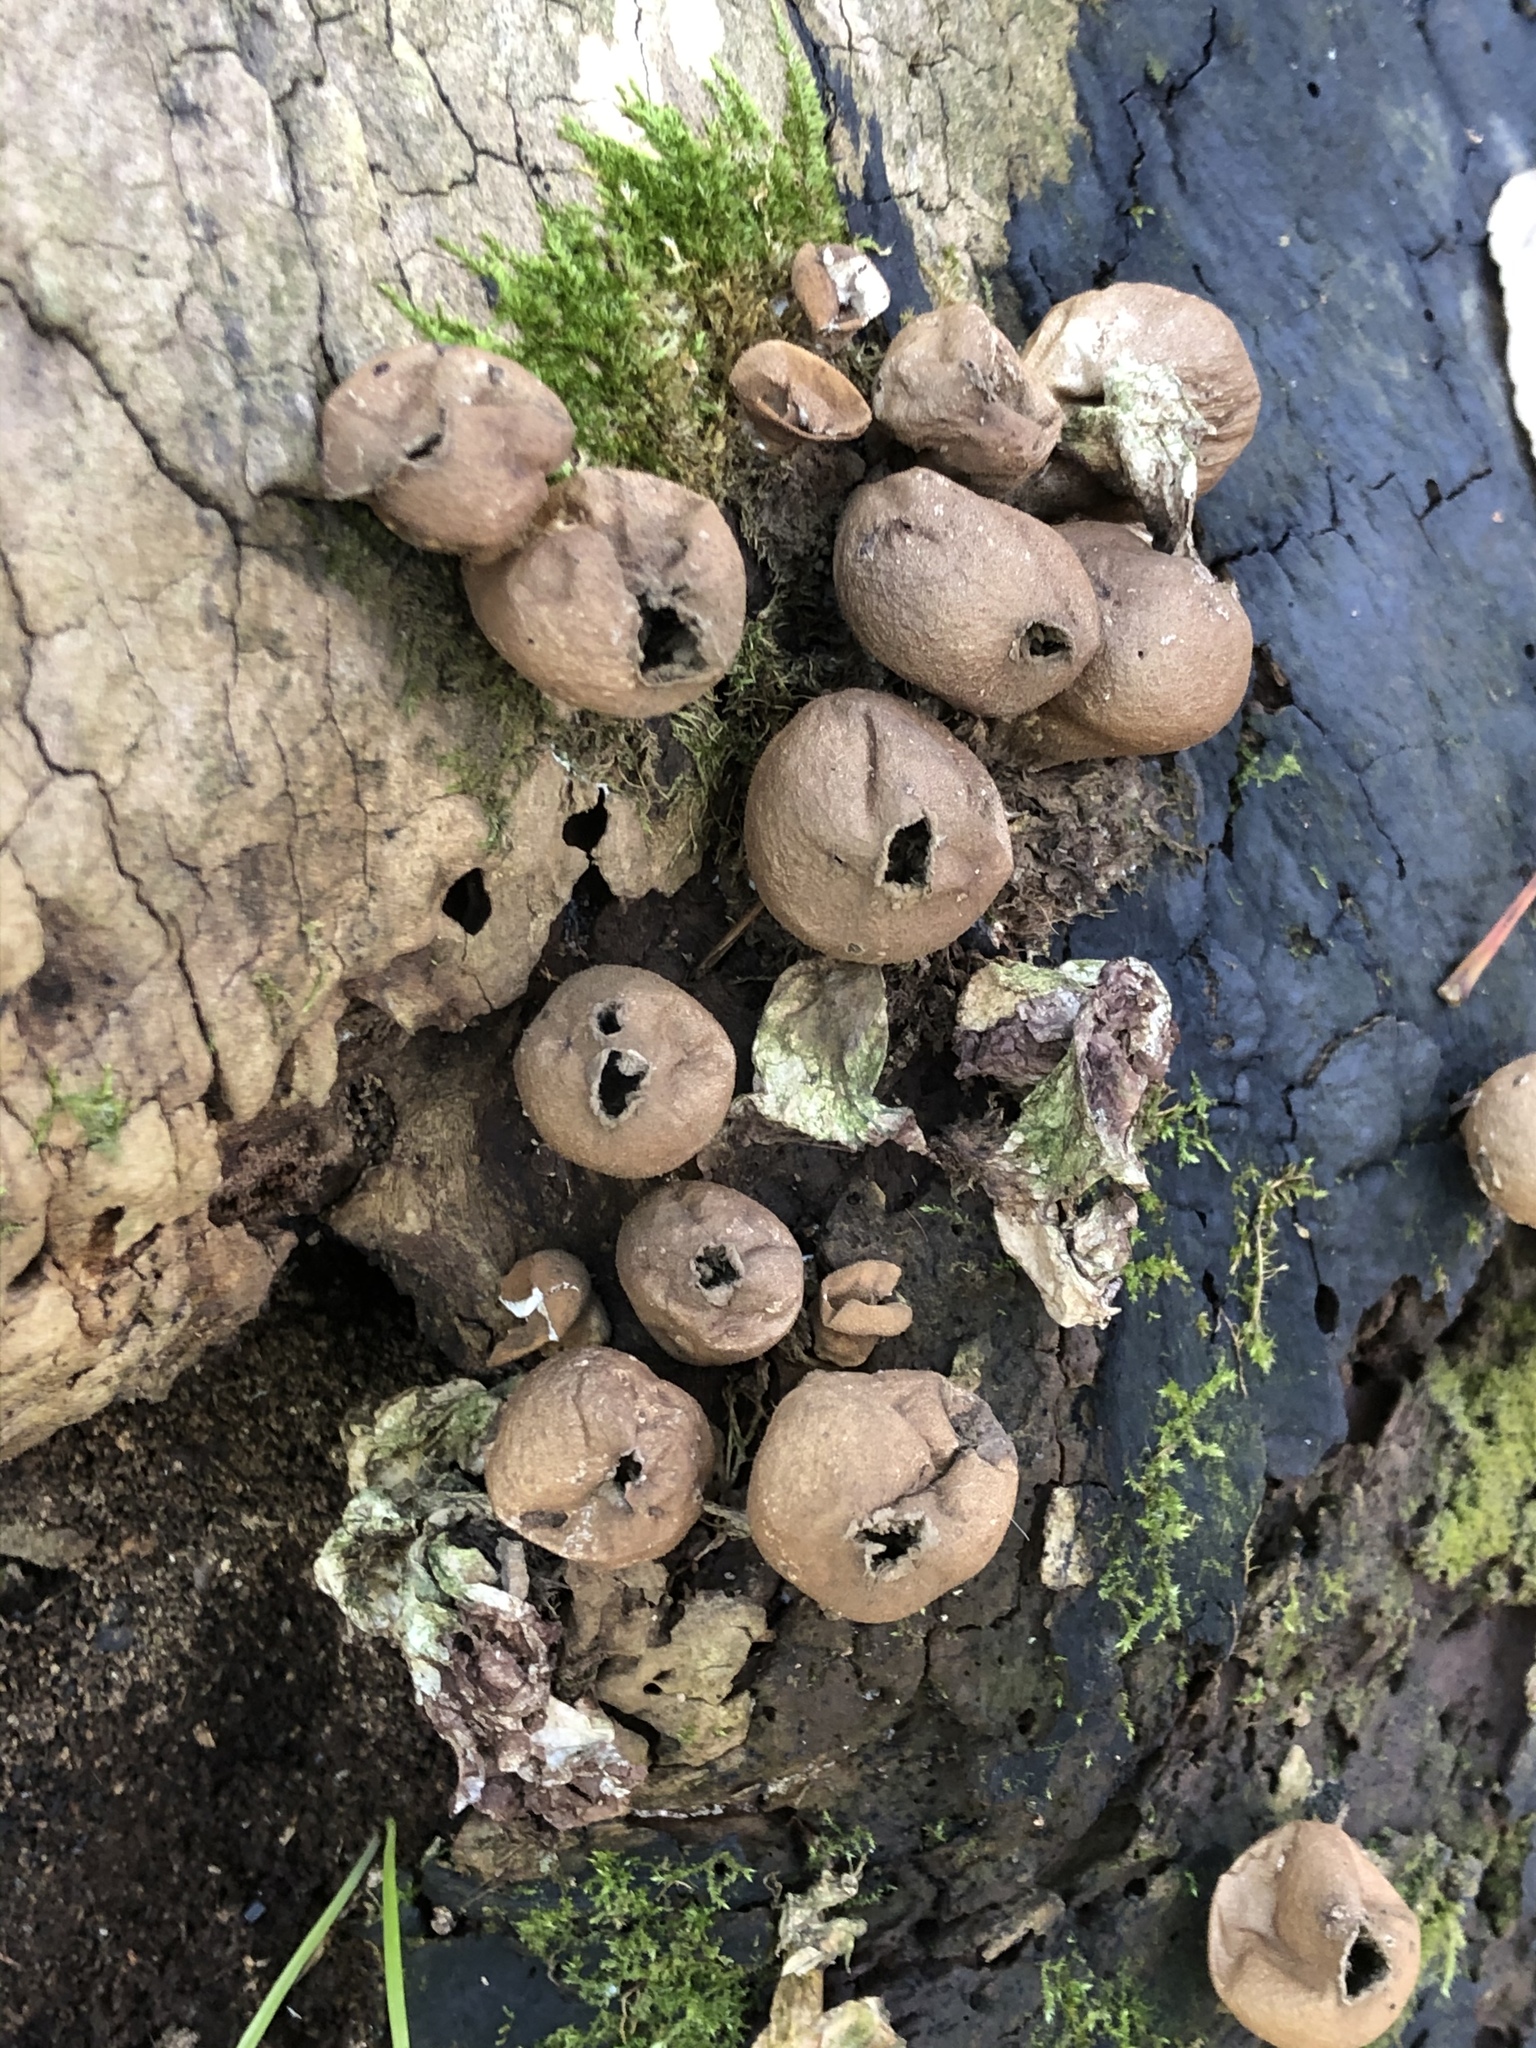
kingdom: Fungi
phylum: Basidiomycota
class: Agaricomycetes
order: Agaricales
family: Lycoperdaceae
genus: Apioperdon
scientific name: Apioperdon pyriforme
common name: Pear-shaped puffball
